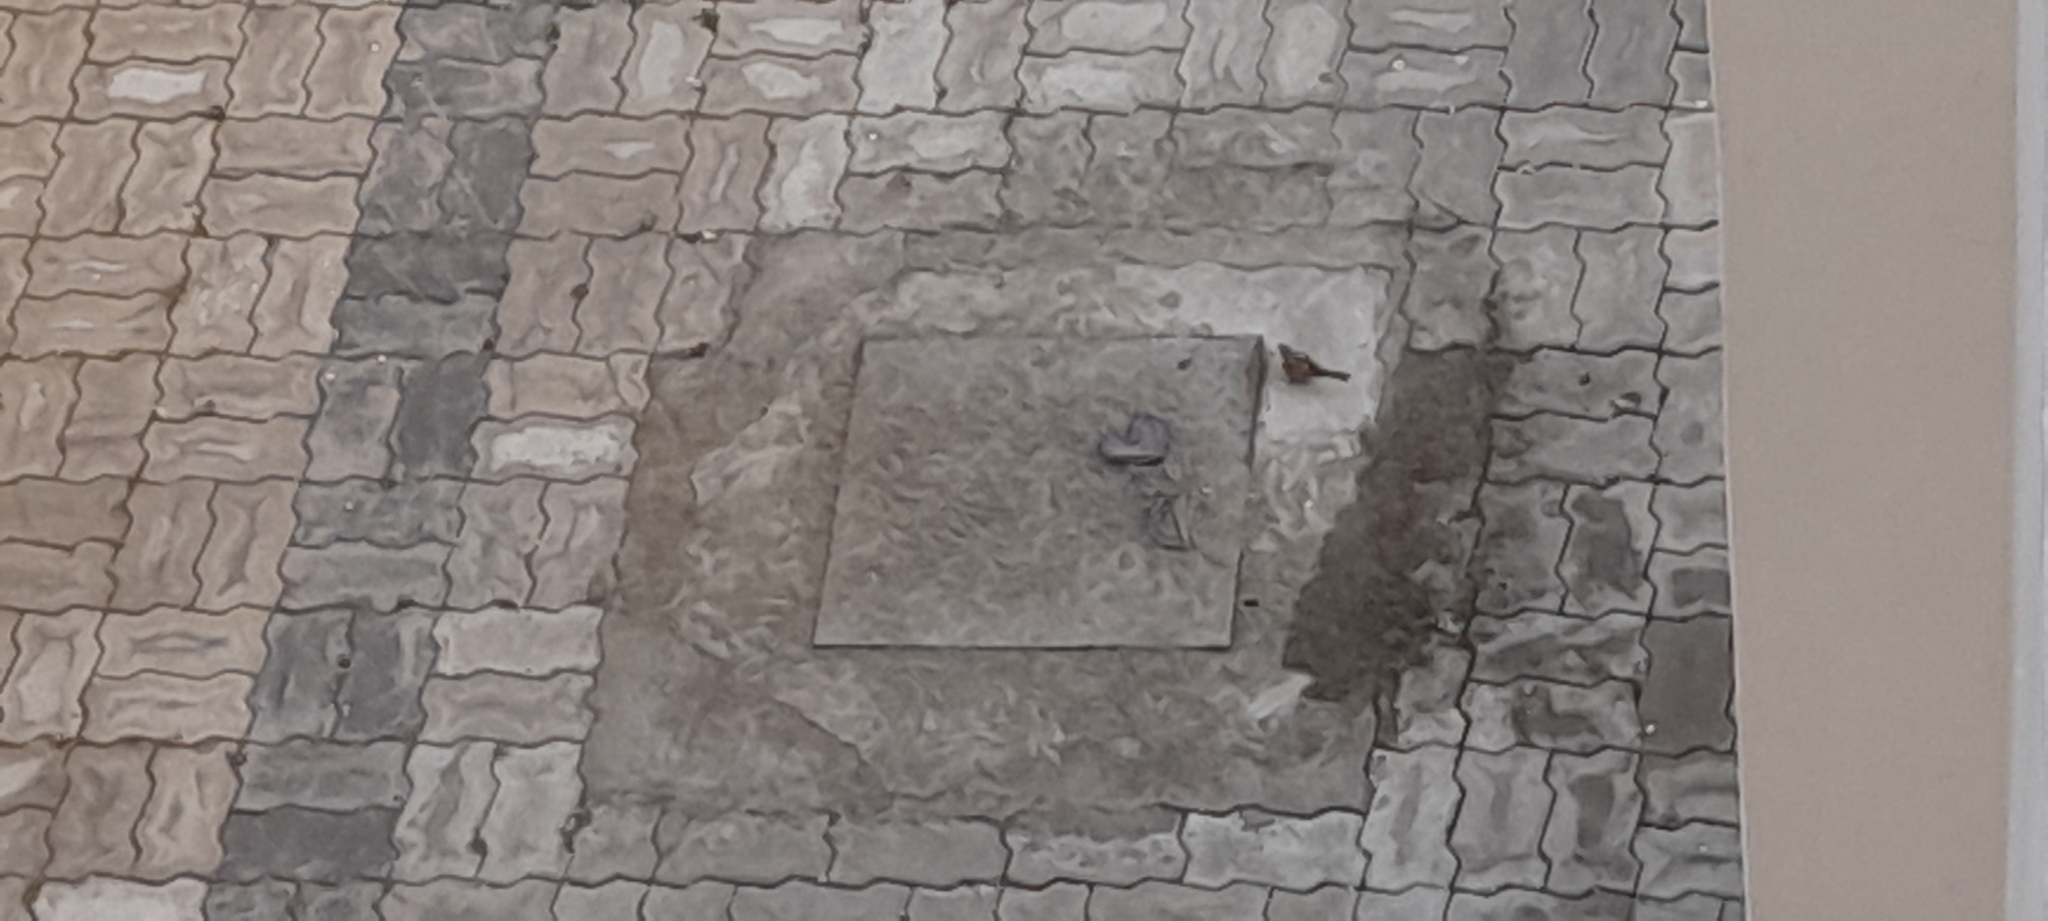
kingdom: Animalia
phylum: Chordata
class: Aves
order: Passeriformes
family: Passeridae
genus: Passer
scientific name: Passer domesticus
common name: House sparrow
